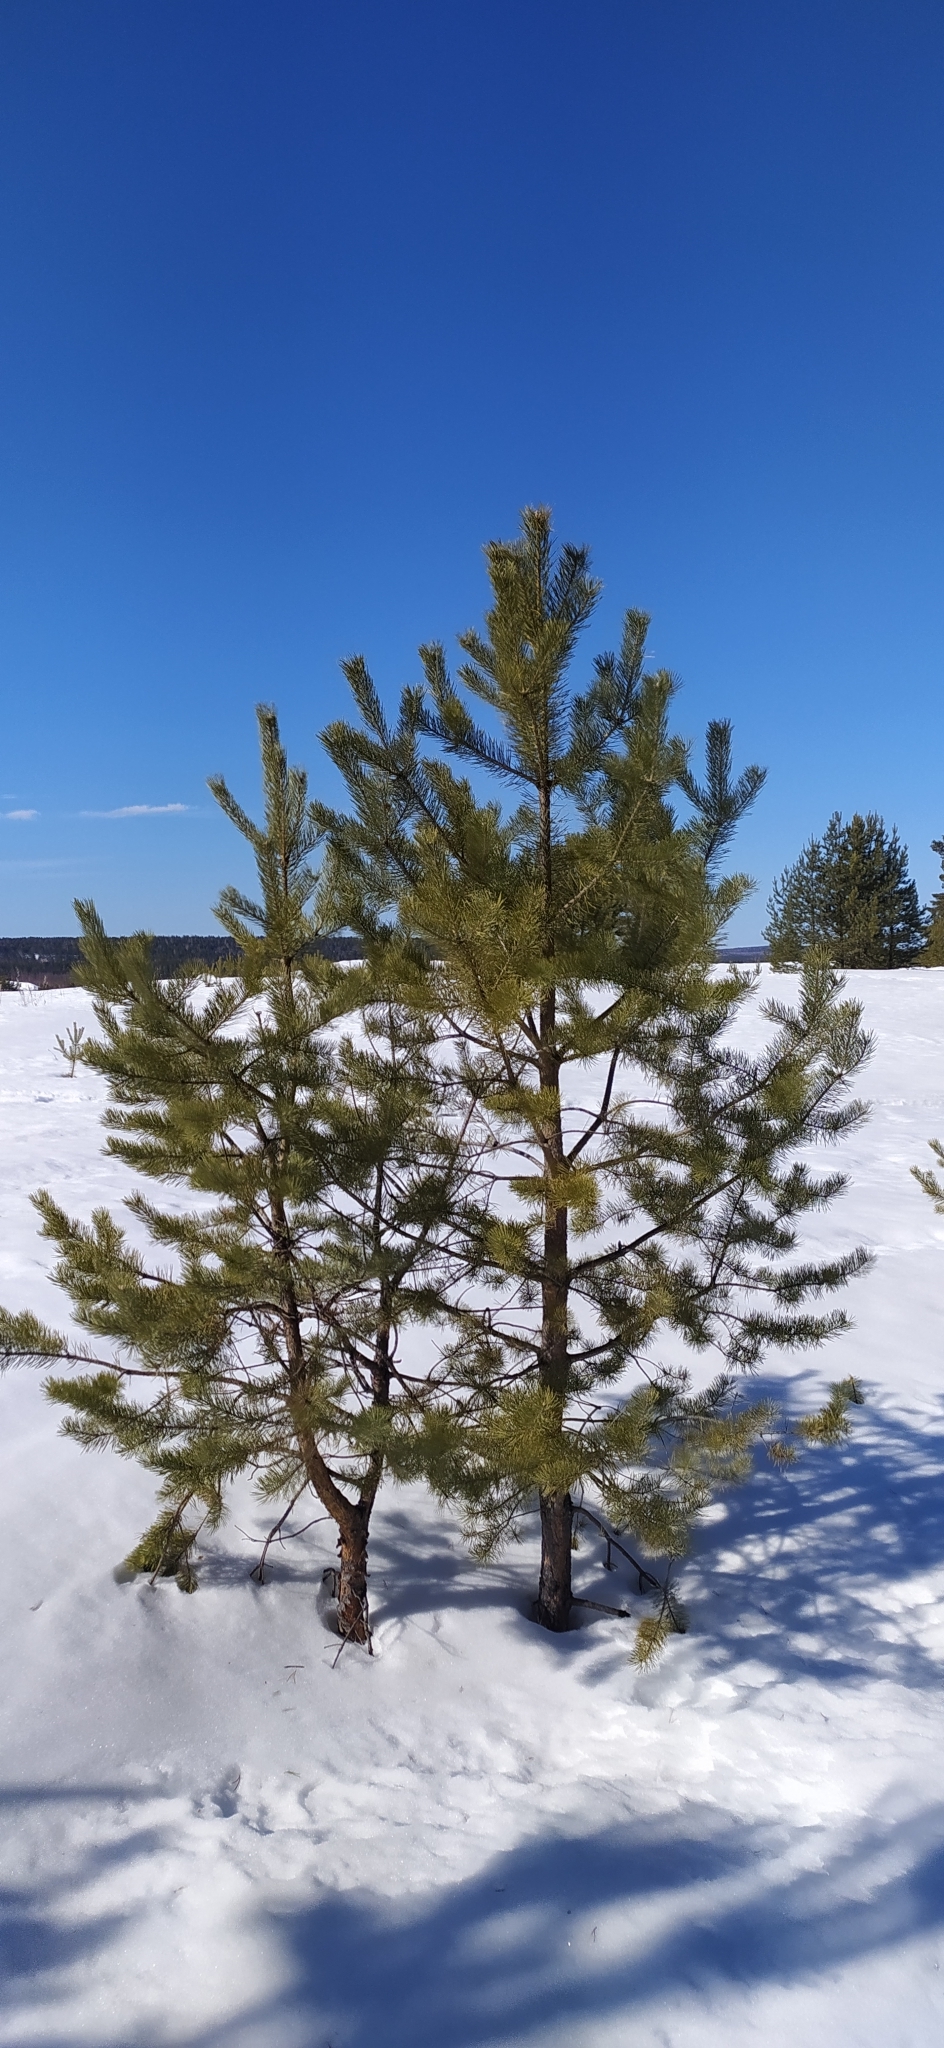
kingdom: Plantae
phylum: Tracheophyta
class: Pinopsida
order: Pinales
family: Pinaceae
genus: Pinus
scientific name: Pinus sylvestris
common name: Scots pine
